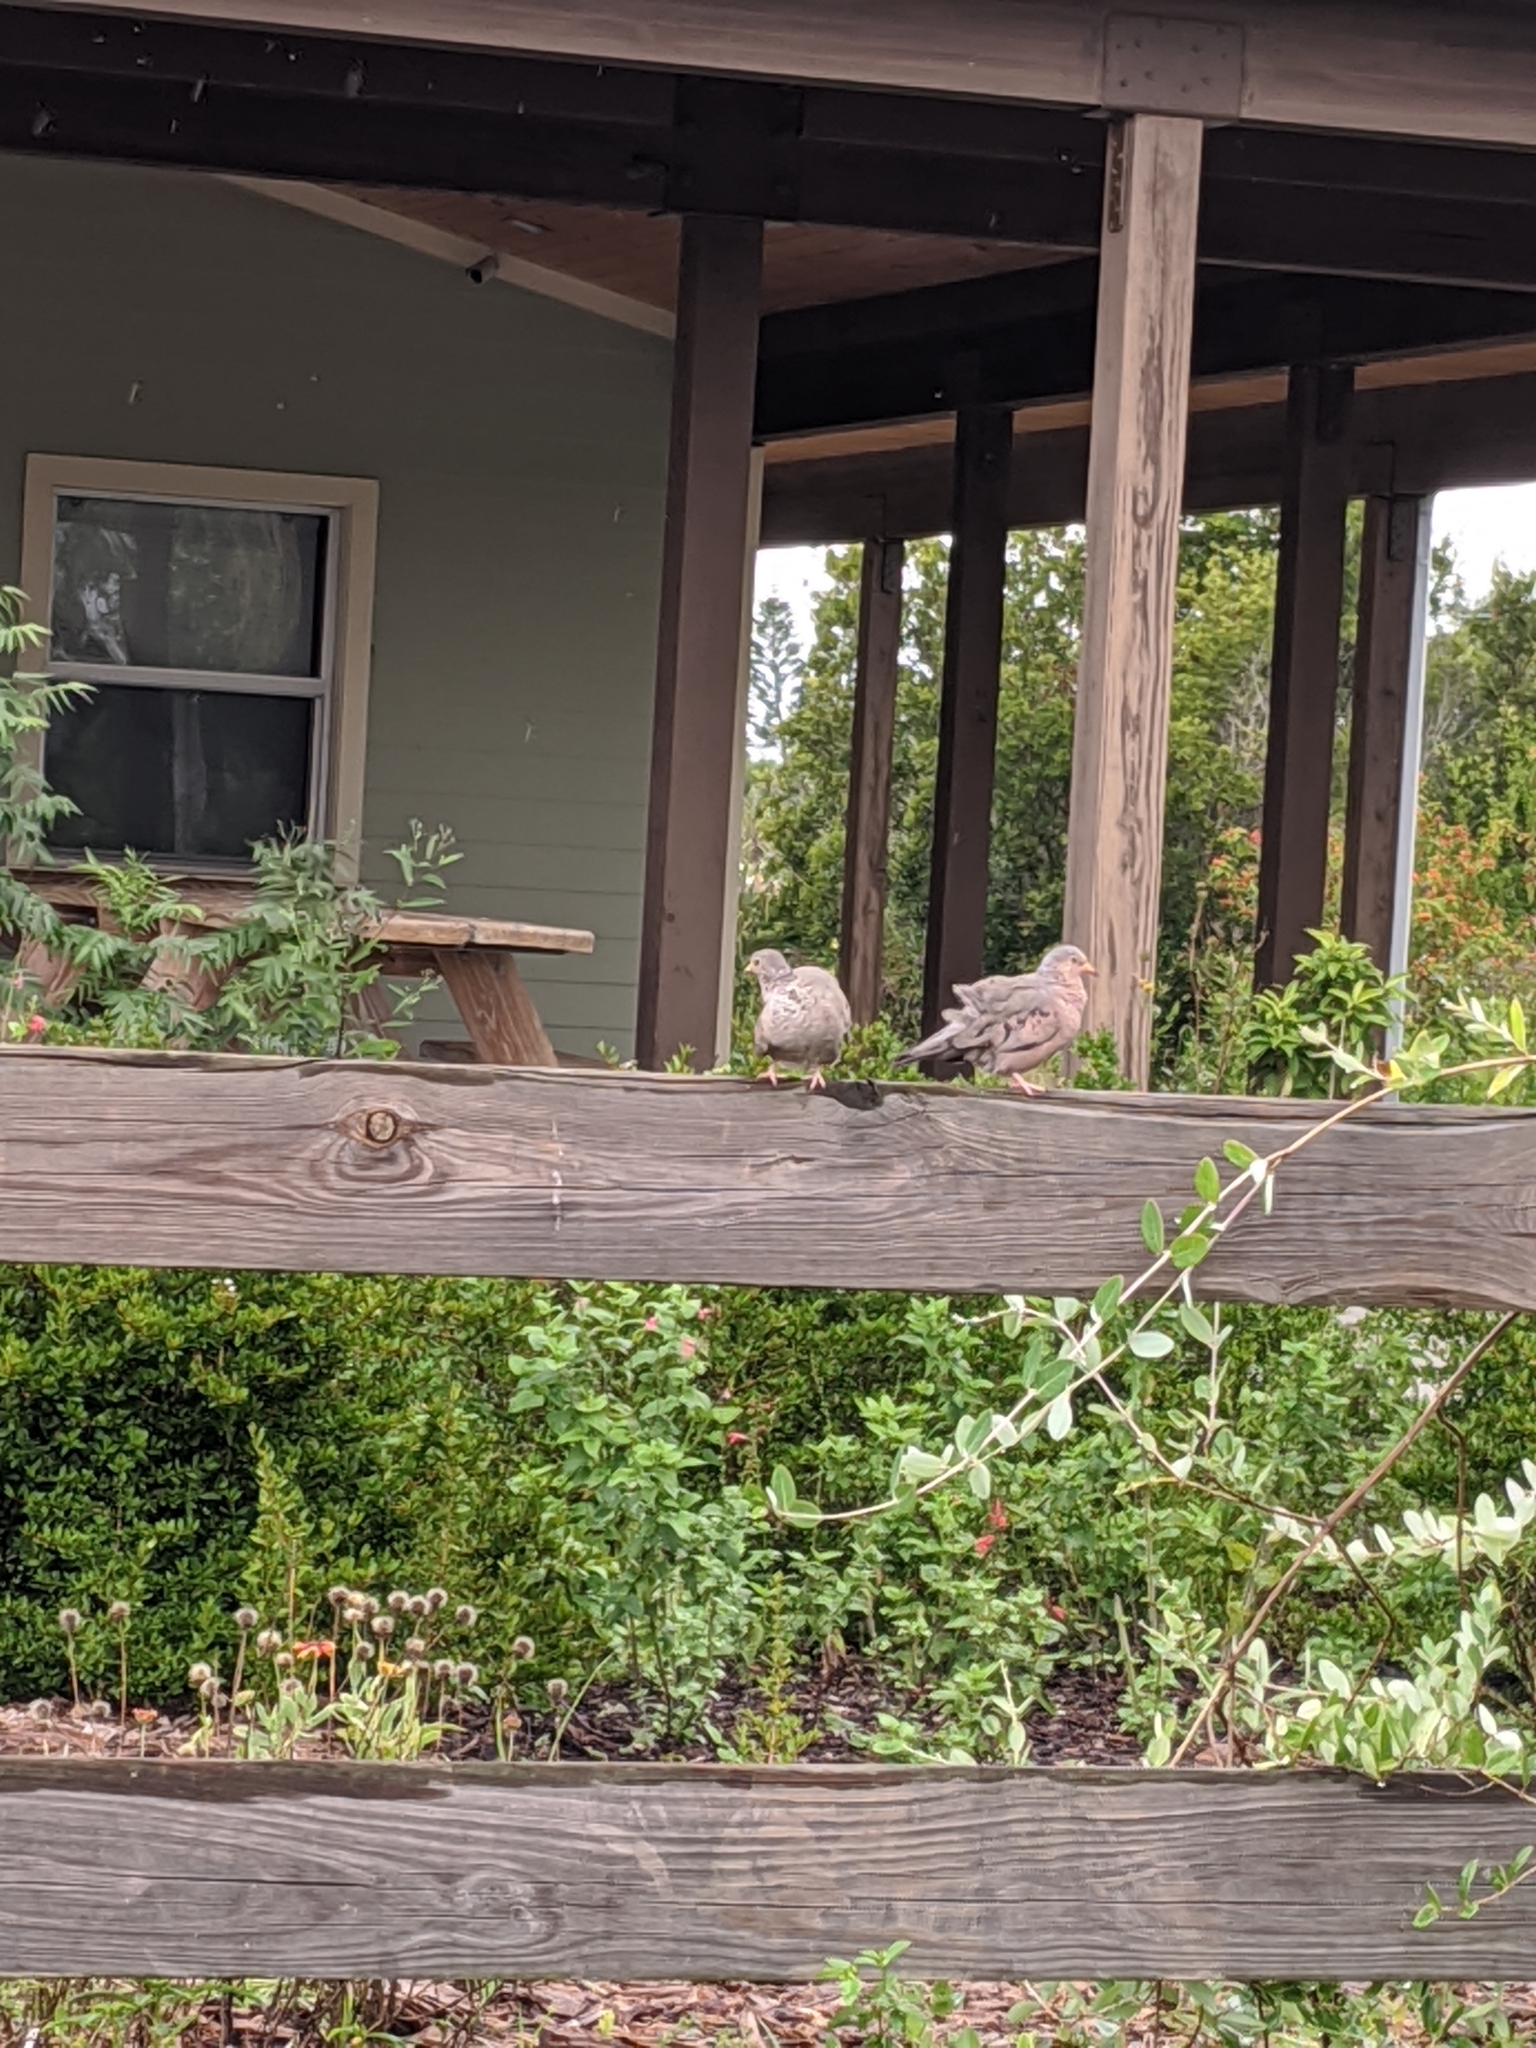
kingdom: Animalia
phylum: Chordata
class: Aves
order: Columbiformes
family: Columbidae
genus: Columbina
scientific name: Columbina passerina
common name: Common ground-dove
